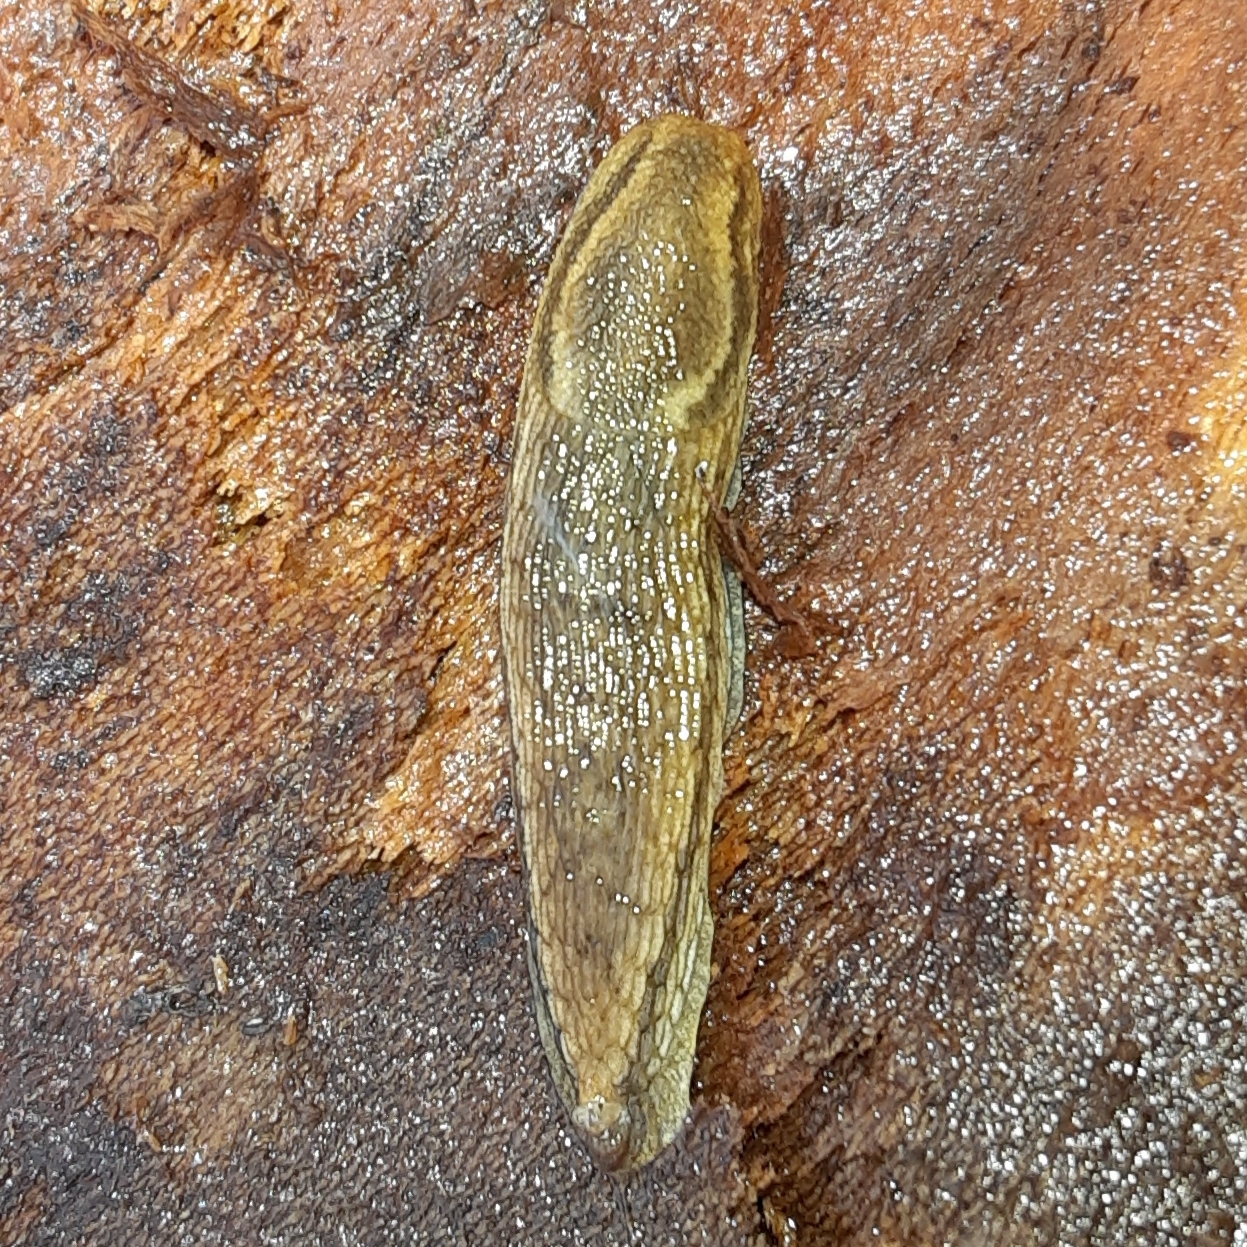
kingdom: Animalia
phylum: Mollusca
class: Gastropoda
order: Stylommatophora
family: Arionidae
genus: Arion
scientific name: Arion subfuscus
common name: Dusky arion
